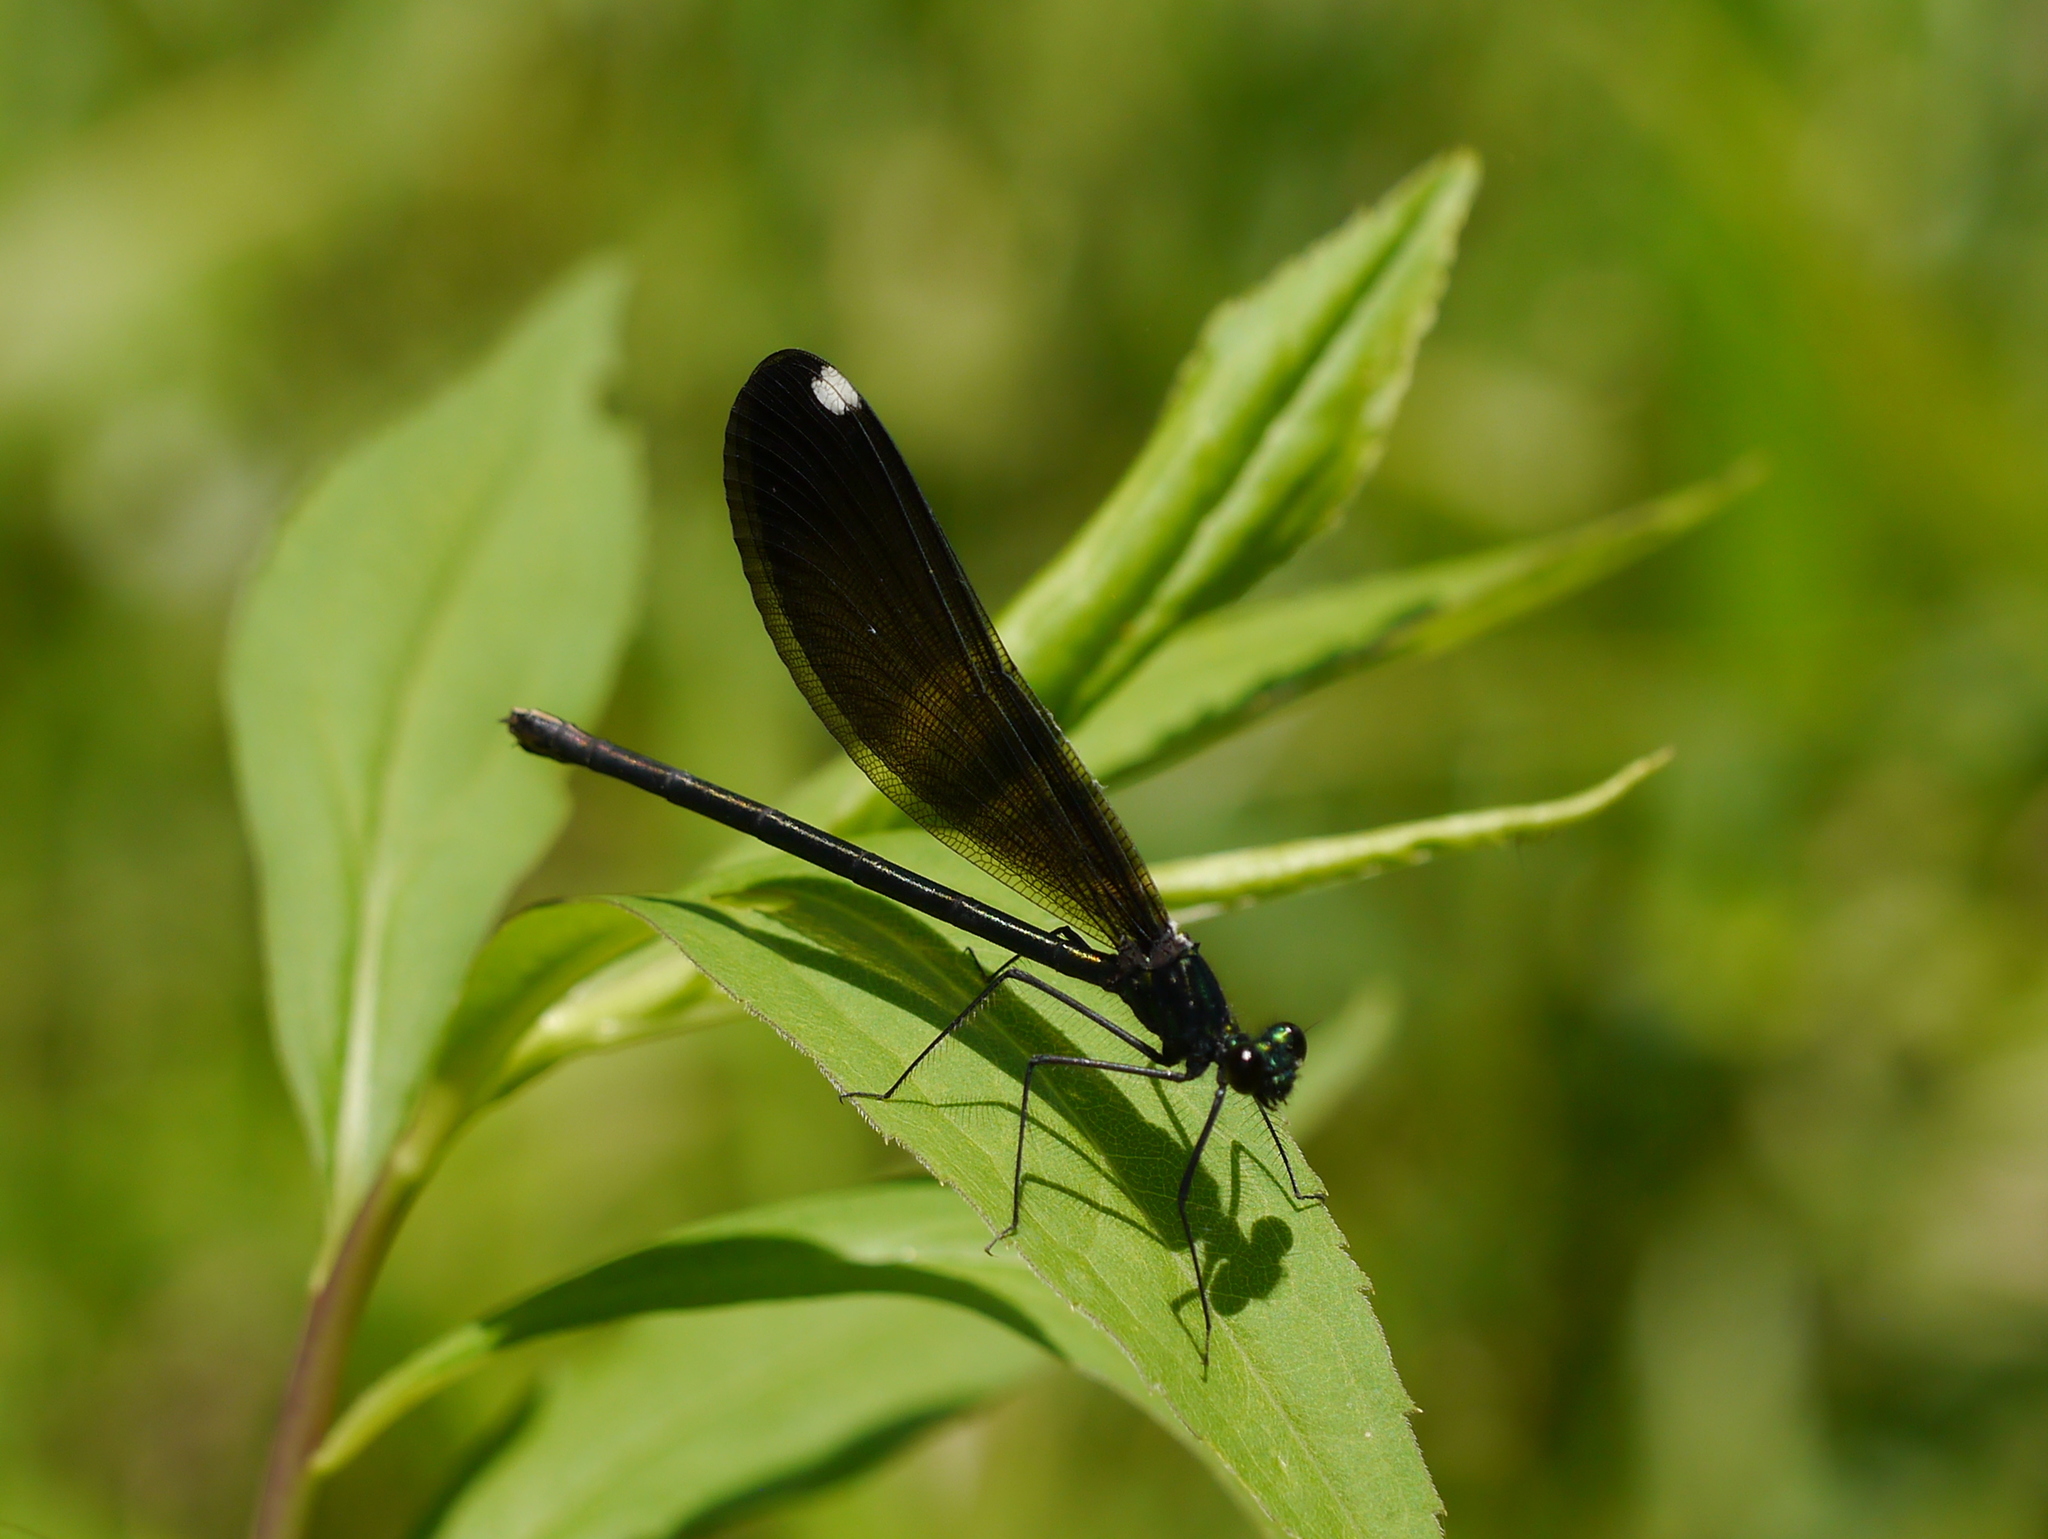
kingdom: Animalia
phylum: Arthropoda
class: Insecta
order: Odonata
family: Calopterygidae
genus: Calopteryx
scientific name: Calopteryx maculata
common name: Ebony jewelwing
